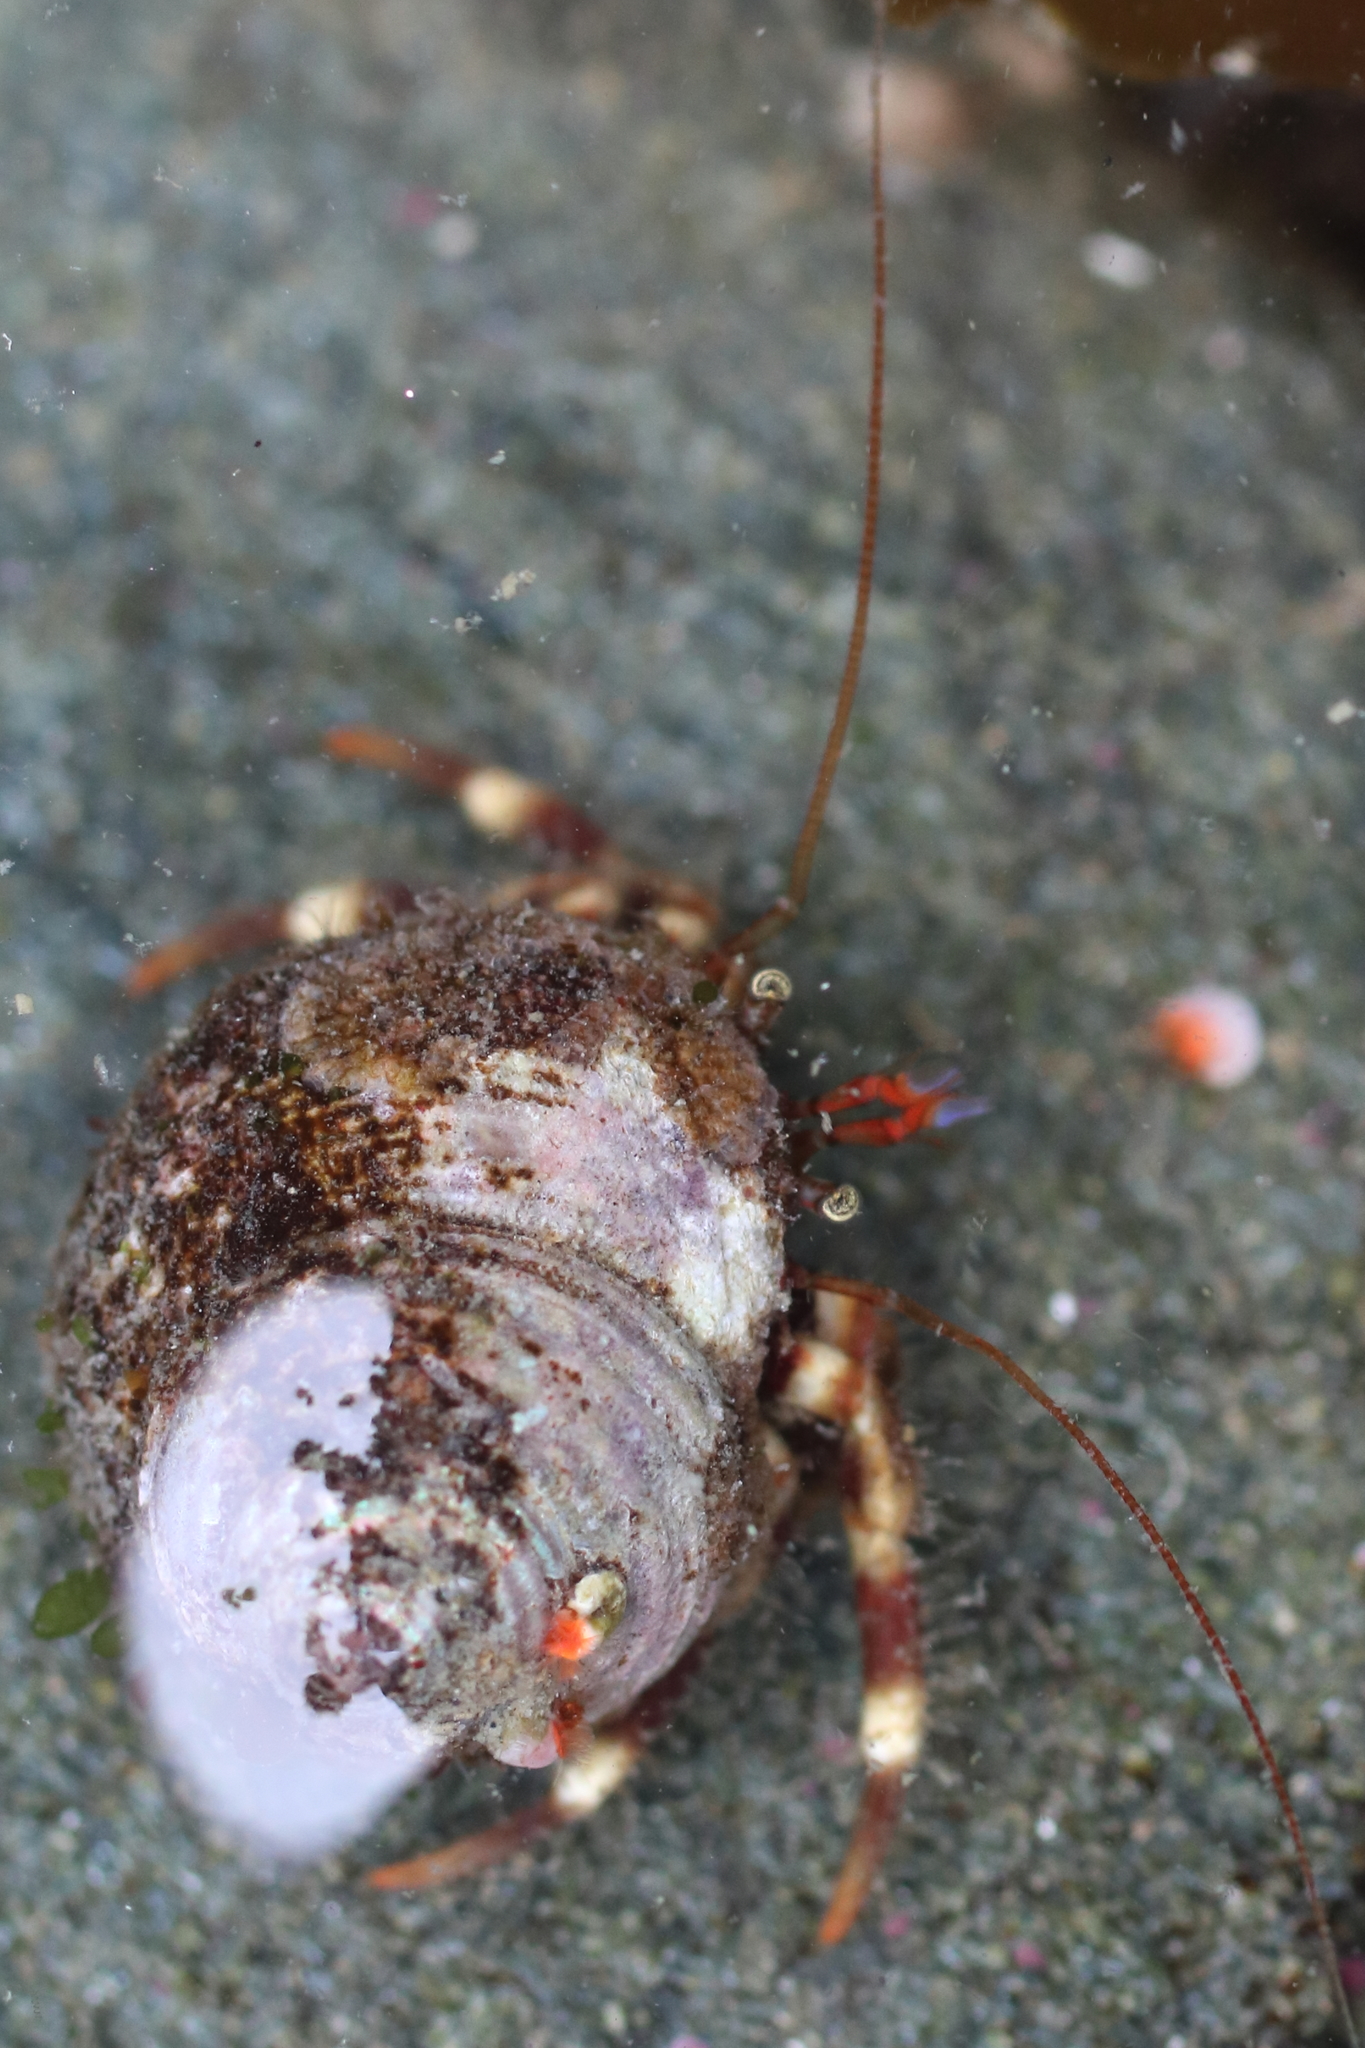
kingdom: Animalia
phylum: Arthropoda
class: Malacostraca
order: Decapoda
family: Paguridae
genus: Pagurus
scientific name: Pagurus caurinus
